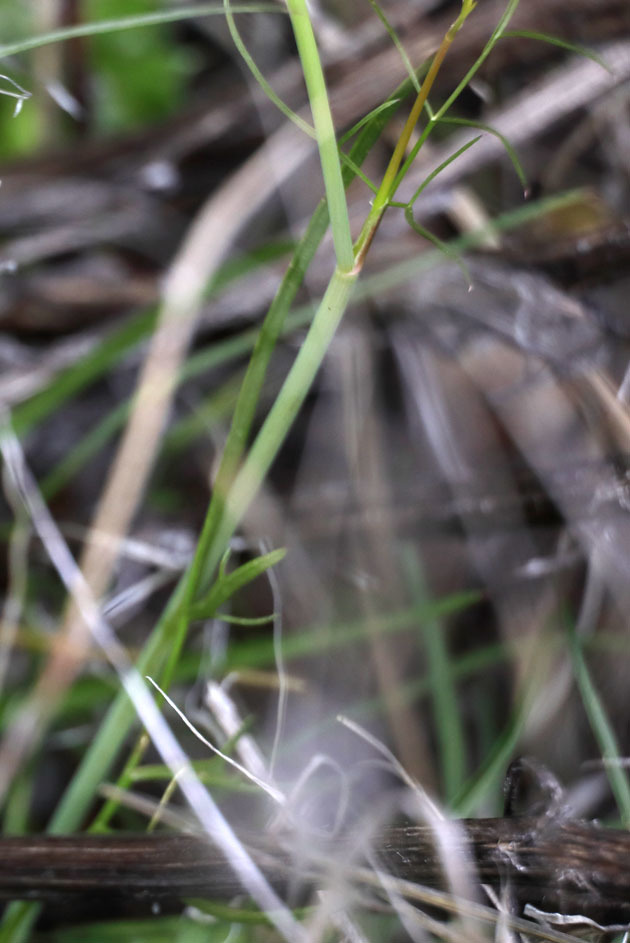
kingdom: Plantae
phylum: Tracheophyta
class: Magnoliopsida
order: Apiales
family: Apiaceae
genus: Perideridia
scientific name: Perideridia californica
